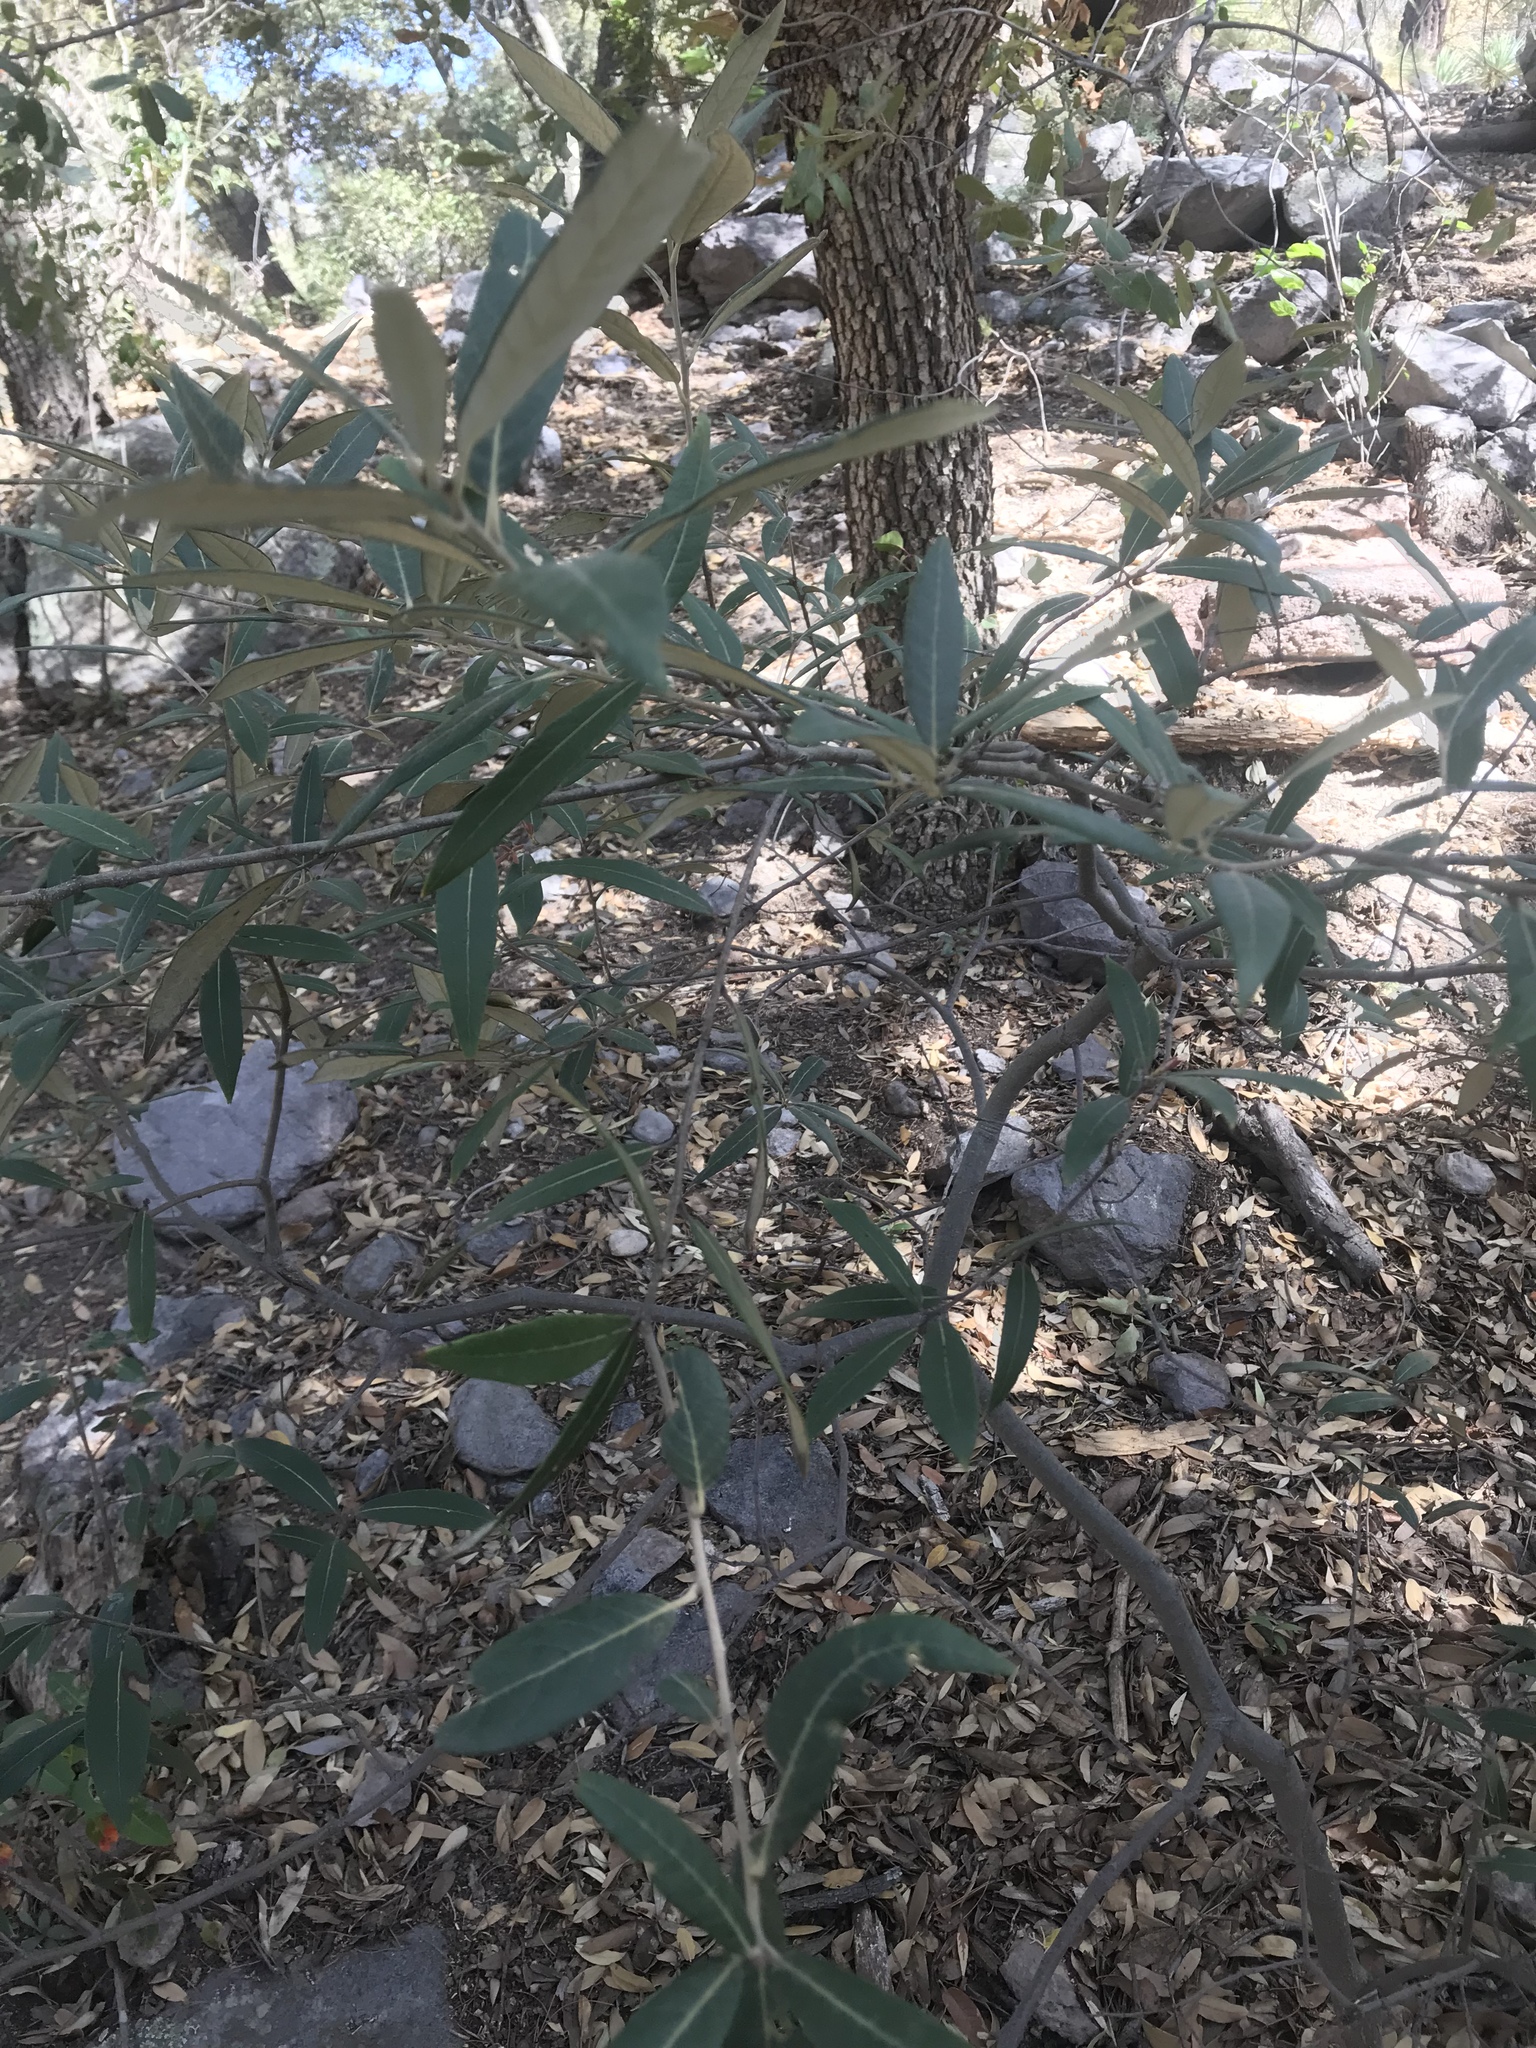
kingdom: Plantae
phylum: Tracheophyta
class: Magnoliopsida
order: Fagales
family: Fagaceae
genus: Quercus
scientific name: Quercus hypoleucoides
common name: Silverleaf oak
